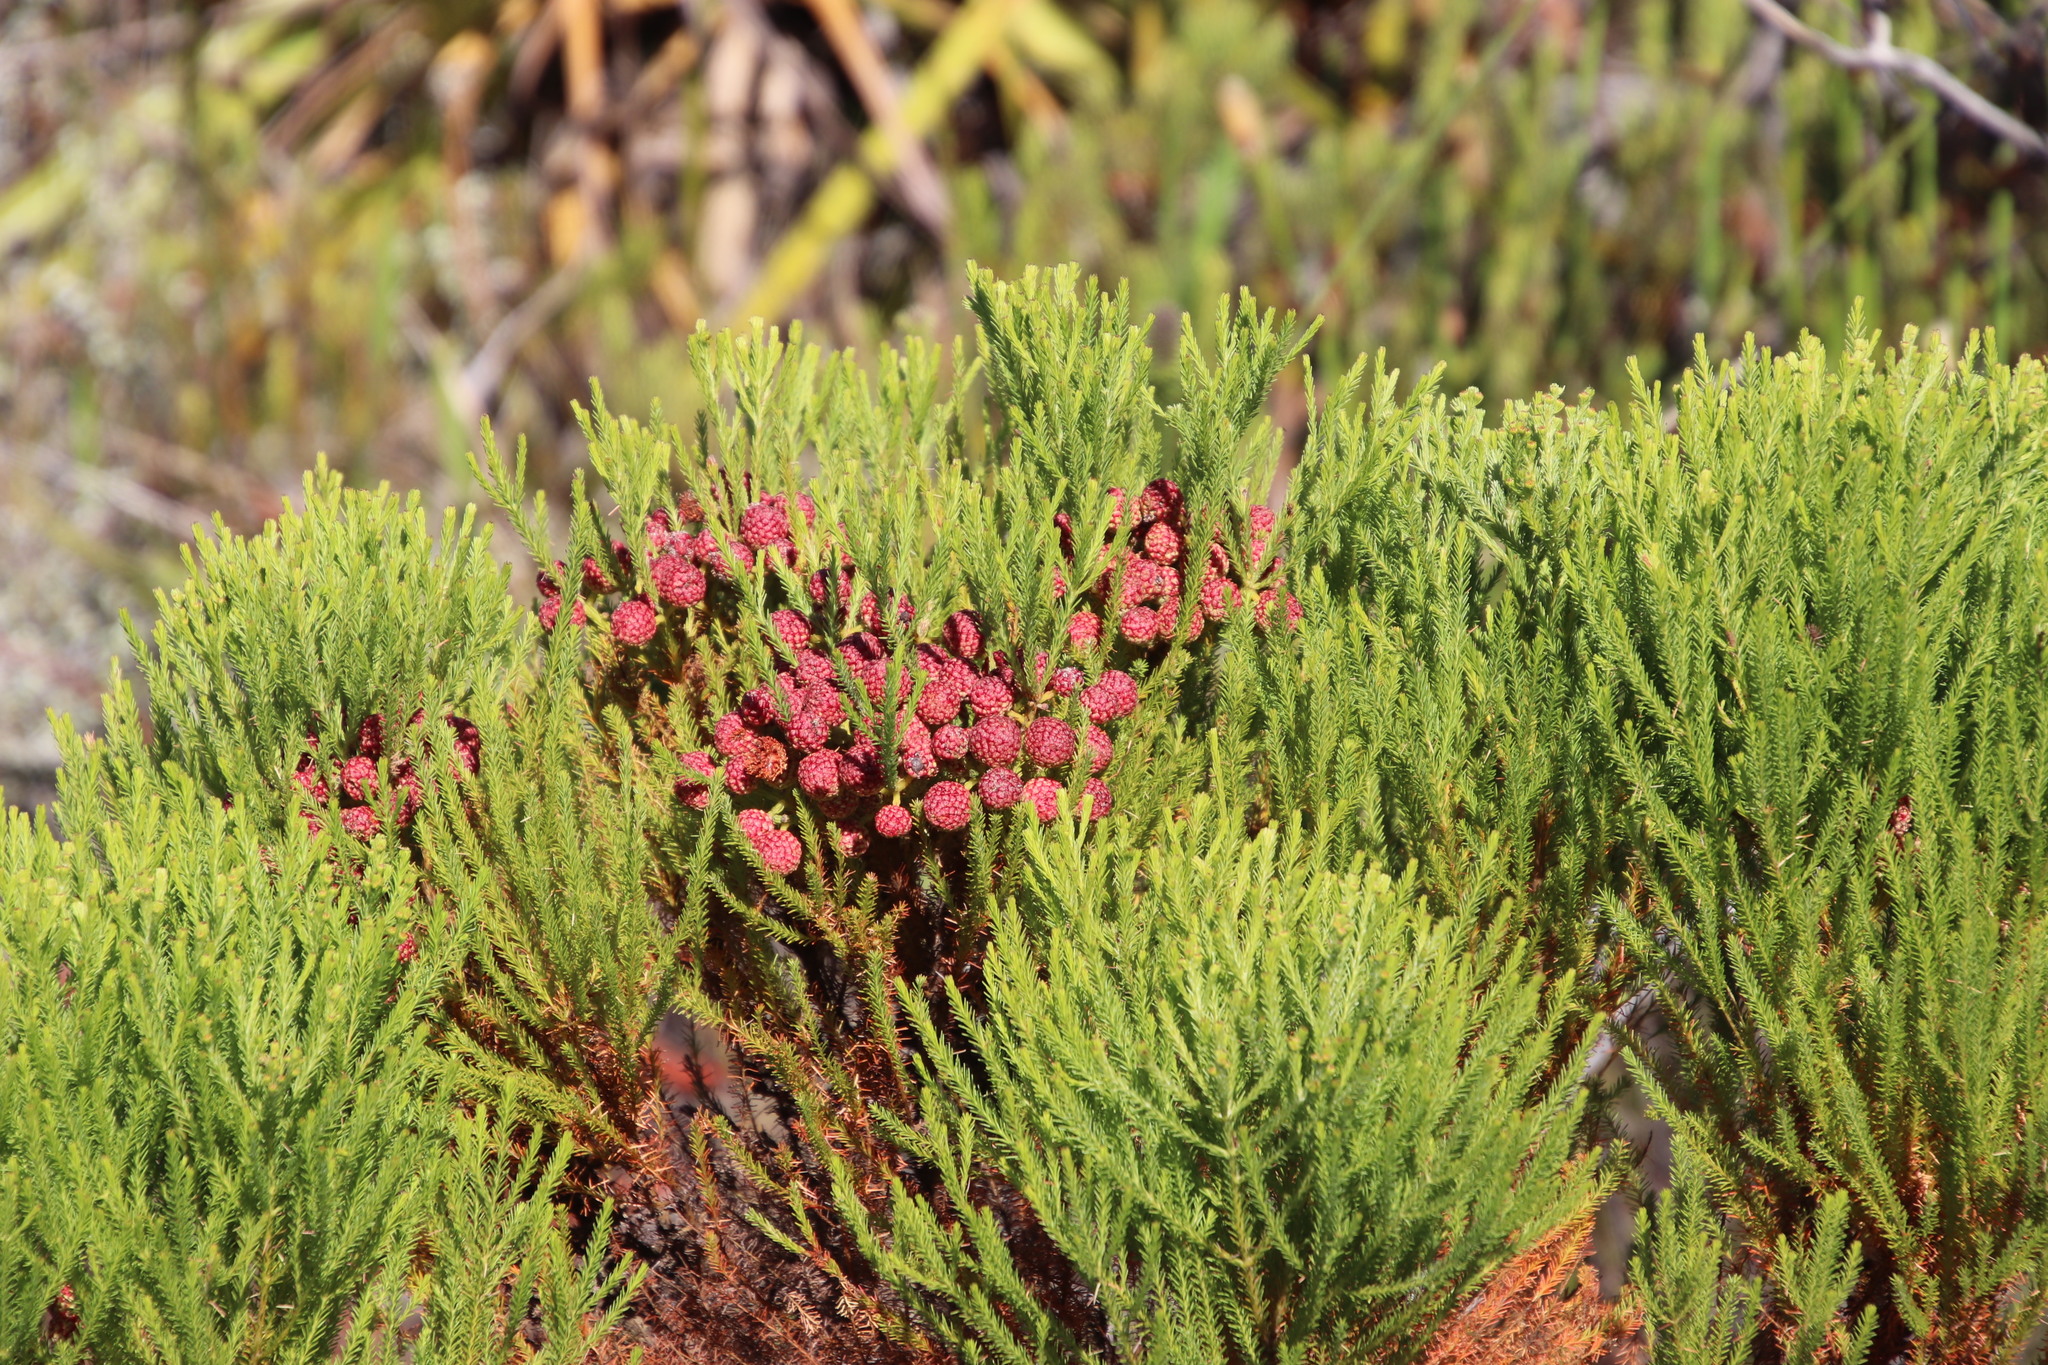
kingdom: Plantae
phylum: Tracheophyta
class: Magnoliopsida
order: Bruniales
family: Bruniaceae
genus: Berzelia
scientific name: Berzelia lanuginosa
